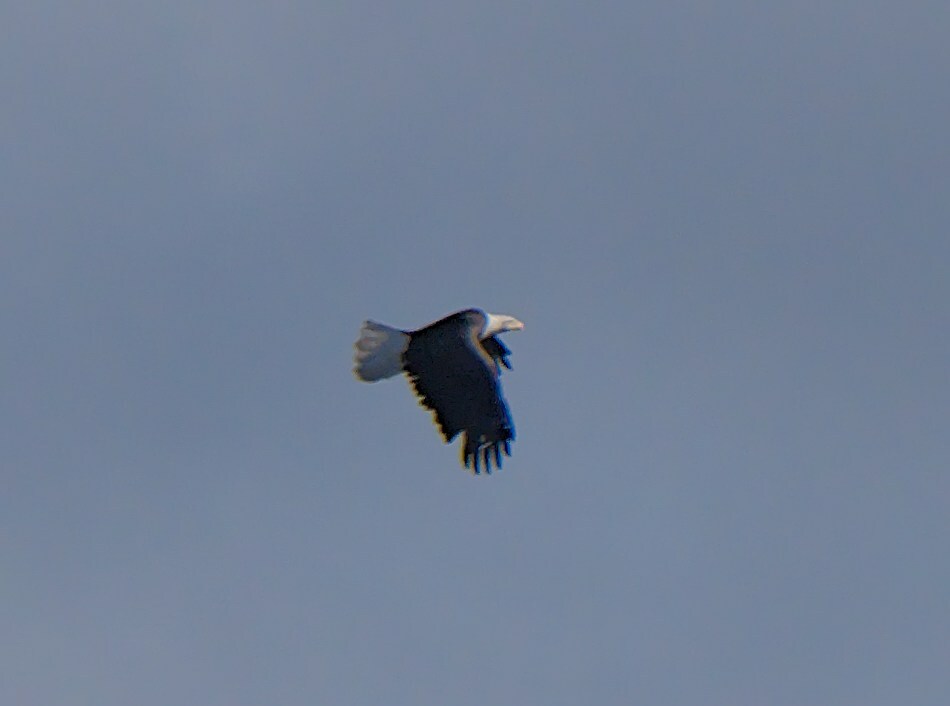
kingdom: Animalia
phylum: Chordata
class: Aves
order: Accipitriformes
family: Accipitridae
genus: Haliaeetus
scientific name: Haliaeetus leucocephalus
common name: Bald eagle
